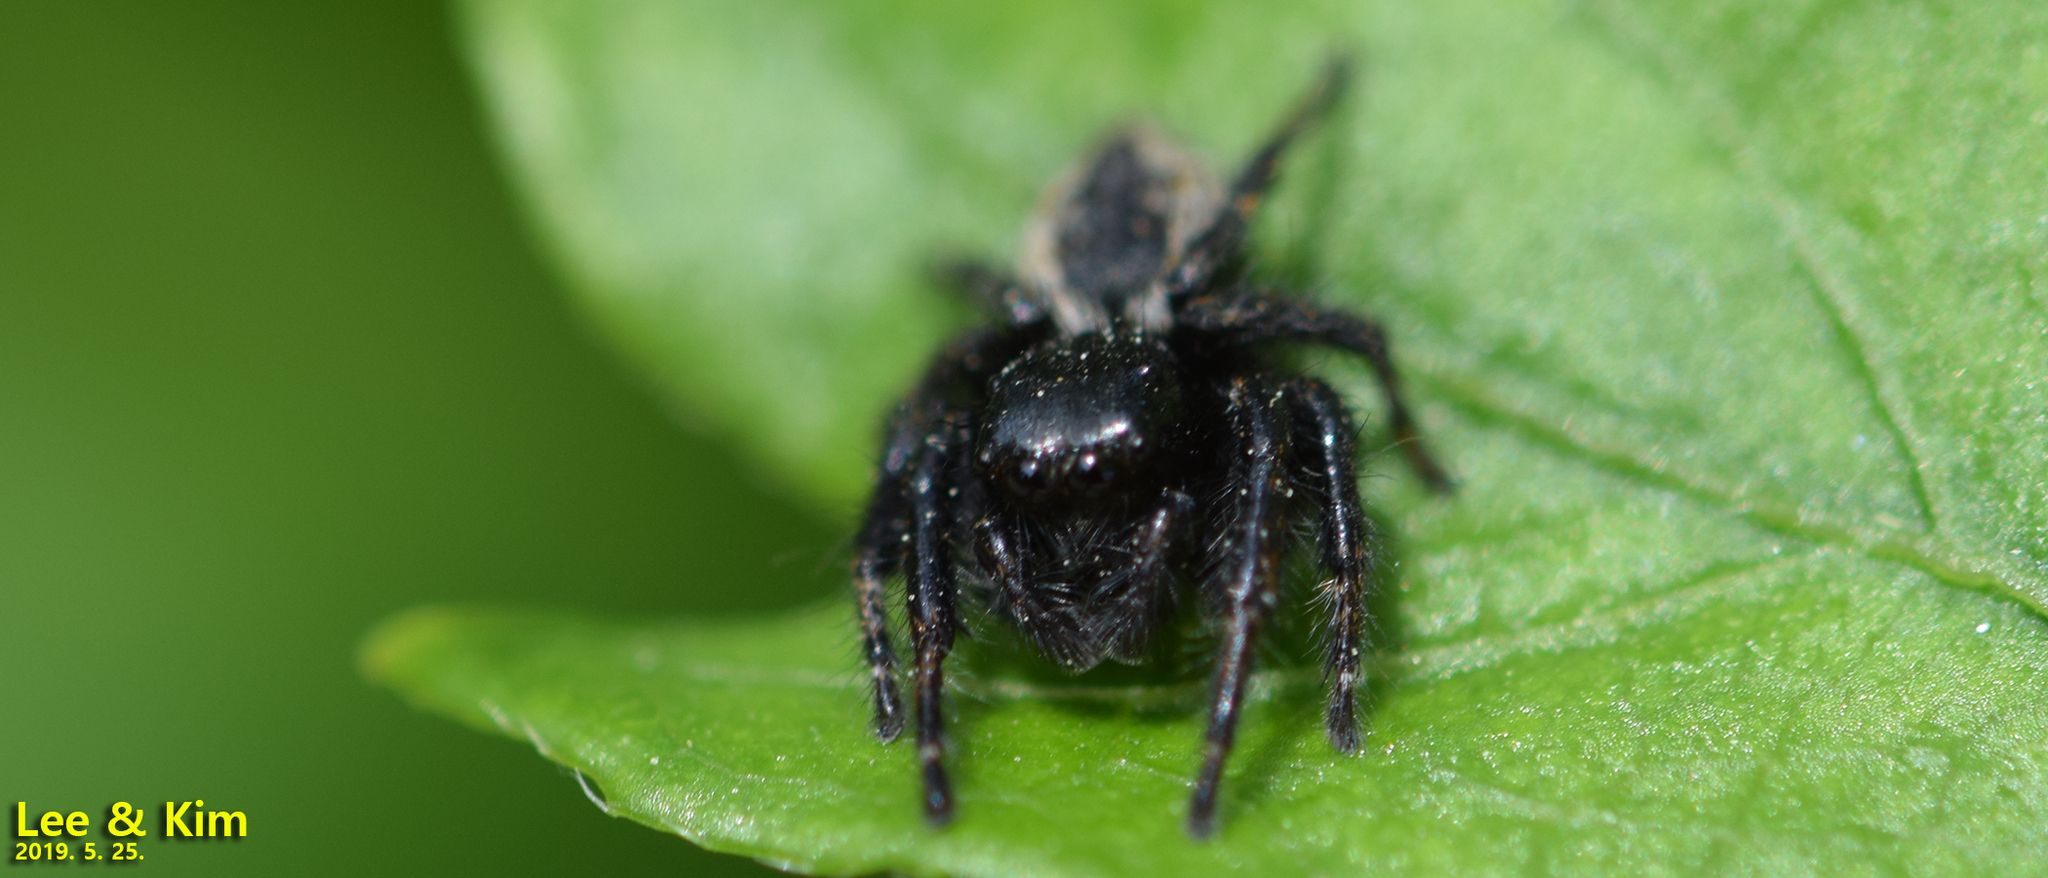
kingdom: Animalia
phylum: Arthropoda
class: Arachnida
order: Araneae
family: Salticidae
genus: Carrhotus
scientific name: Carrhotus xanthogramma
